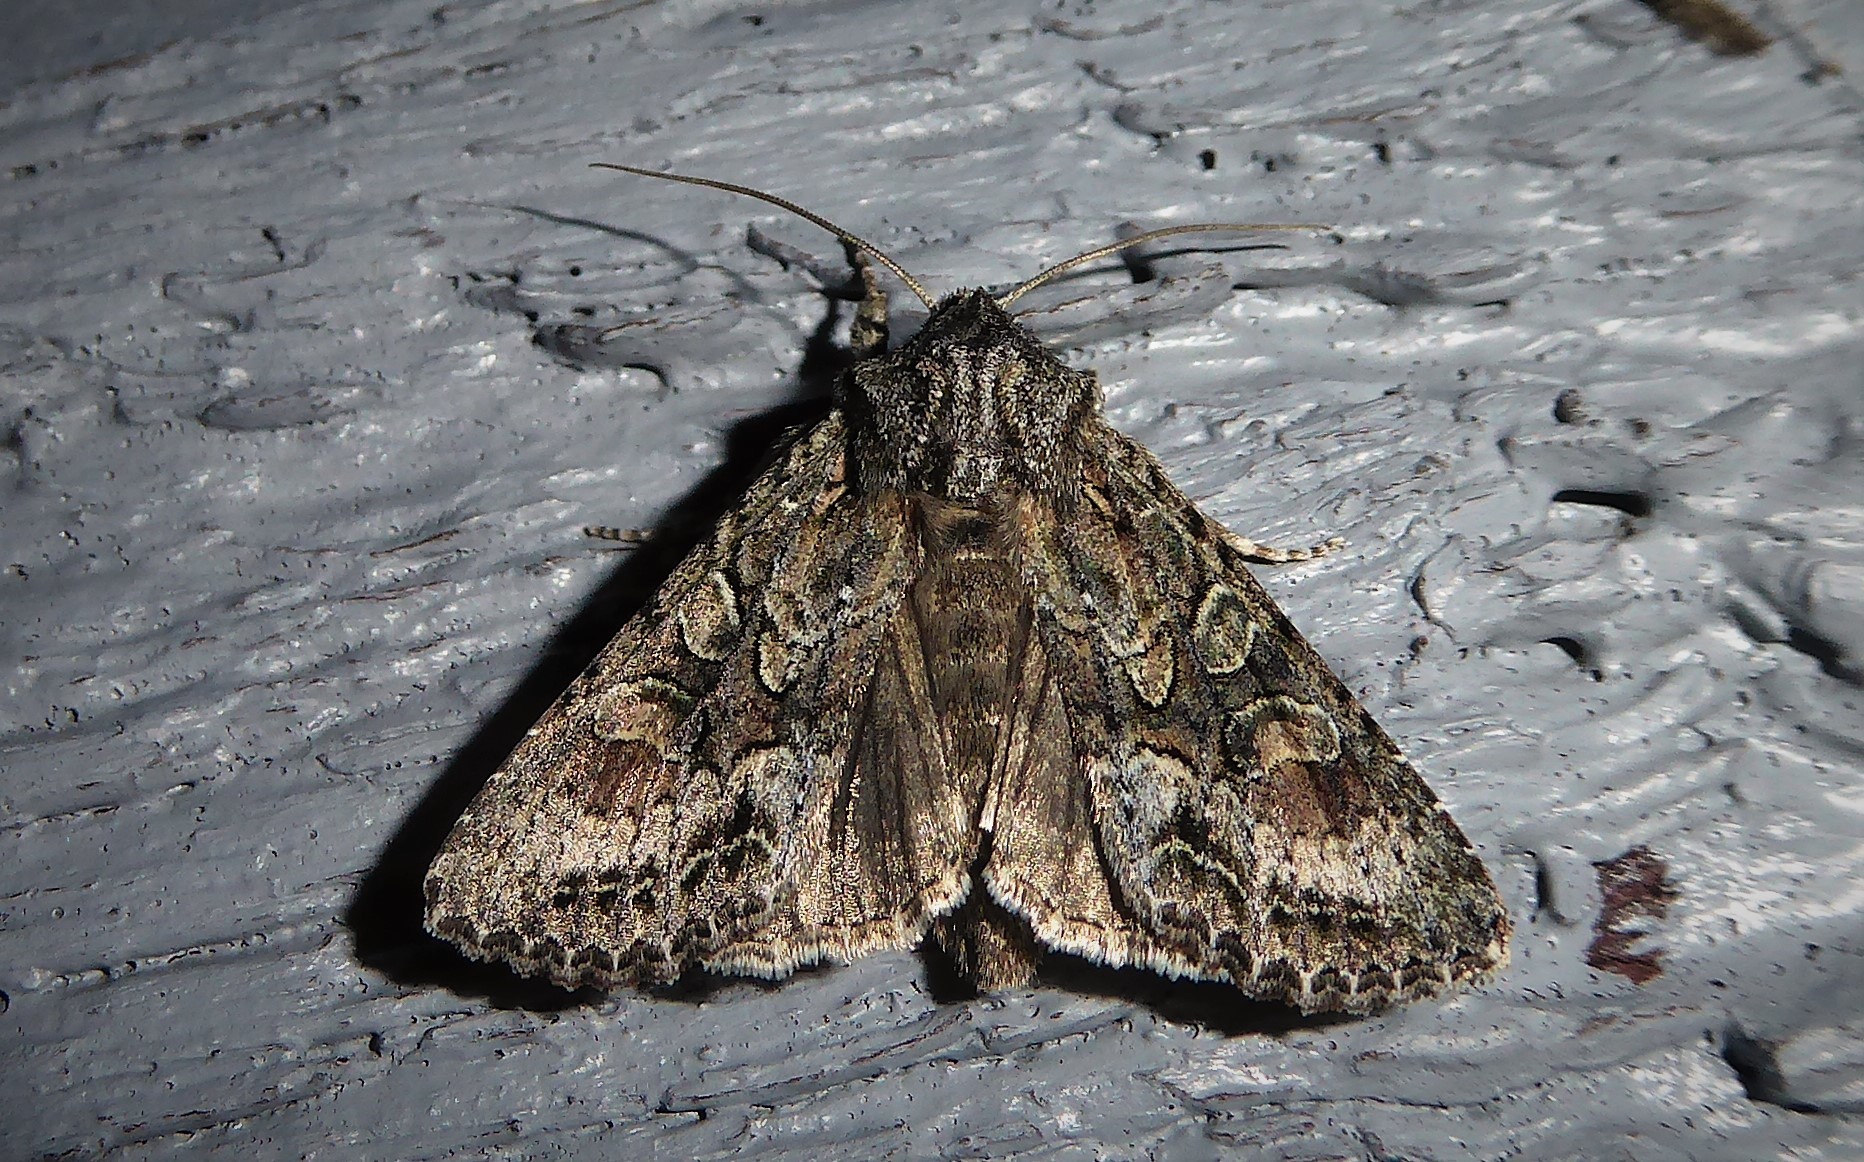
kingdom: Animalia
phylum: Arthropoda
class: Insecta
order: Lepidoptera
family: Noctuidae
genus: Ichneutica
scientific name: Ichneutica mutans
